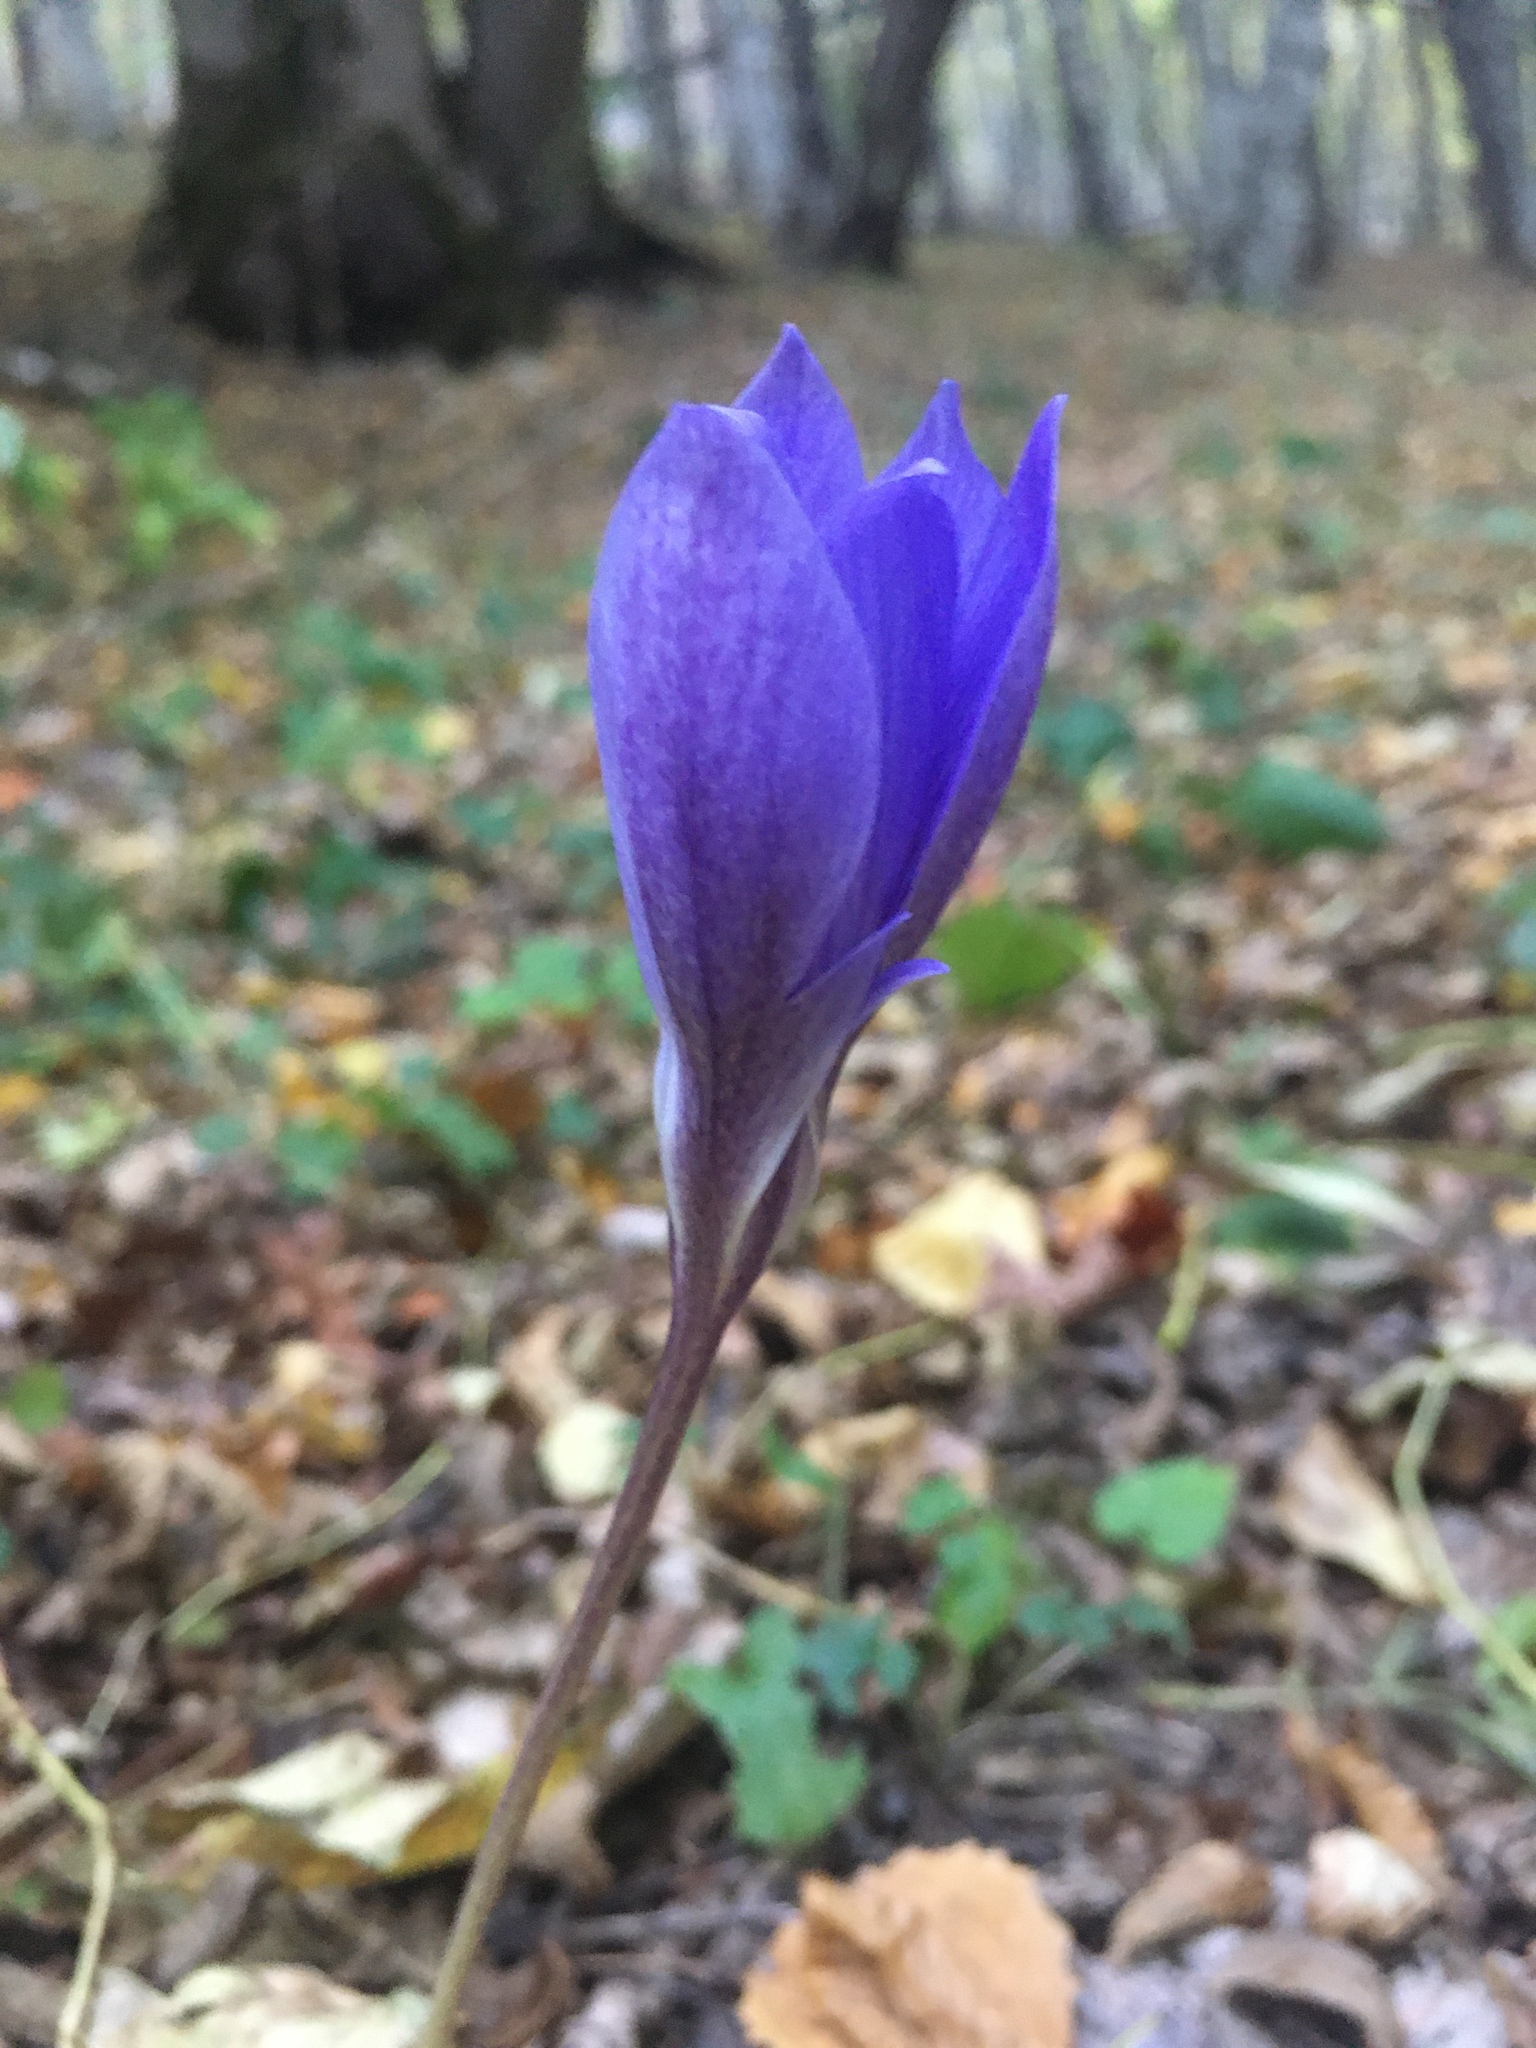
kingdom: Plantae
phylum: Tracheophyta
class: Liliopsida
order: Asparagales
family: Iridaceae
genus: Crocus
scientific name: Crocus speciosus
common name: Bieberstein's crocus
